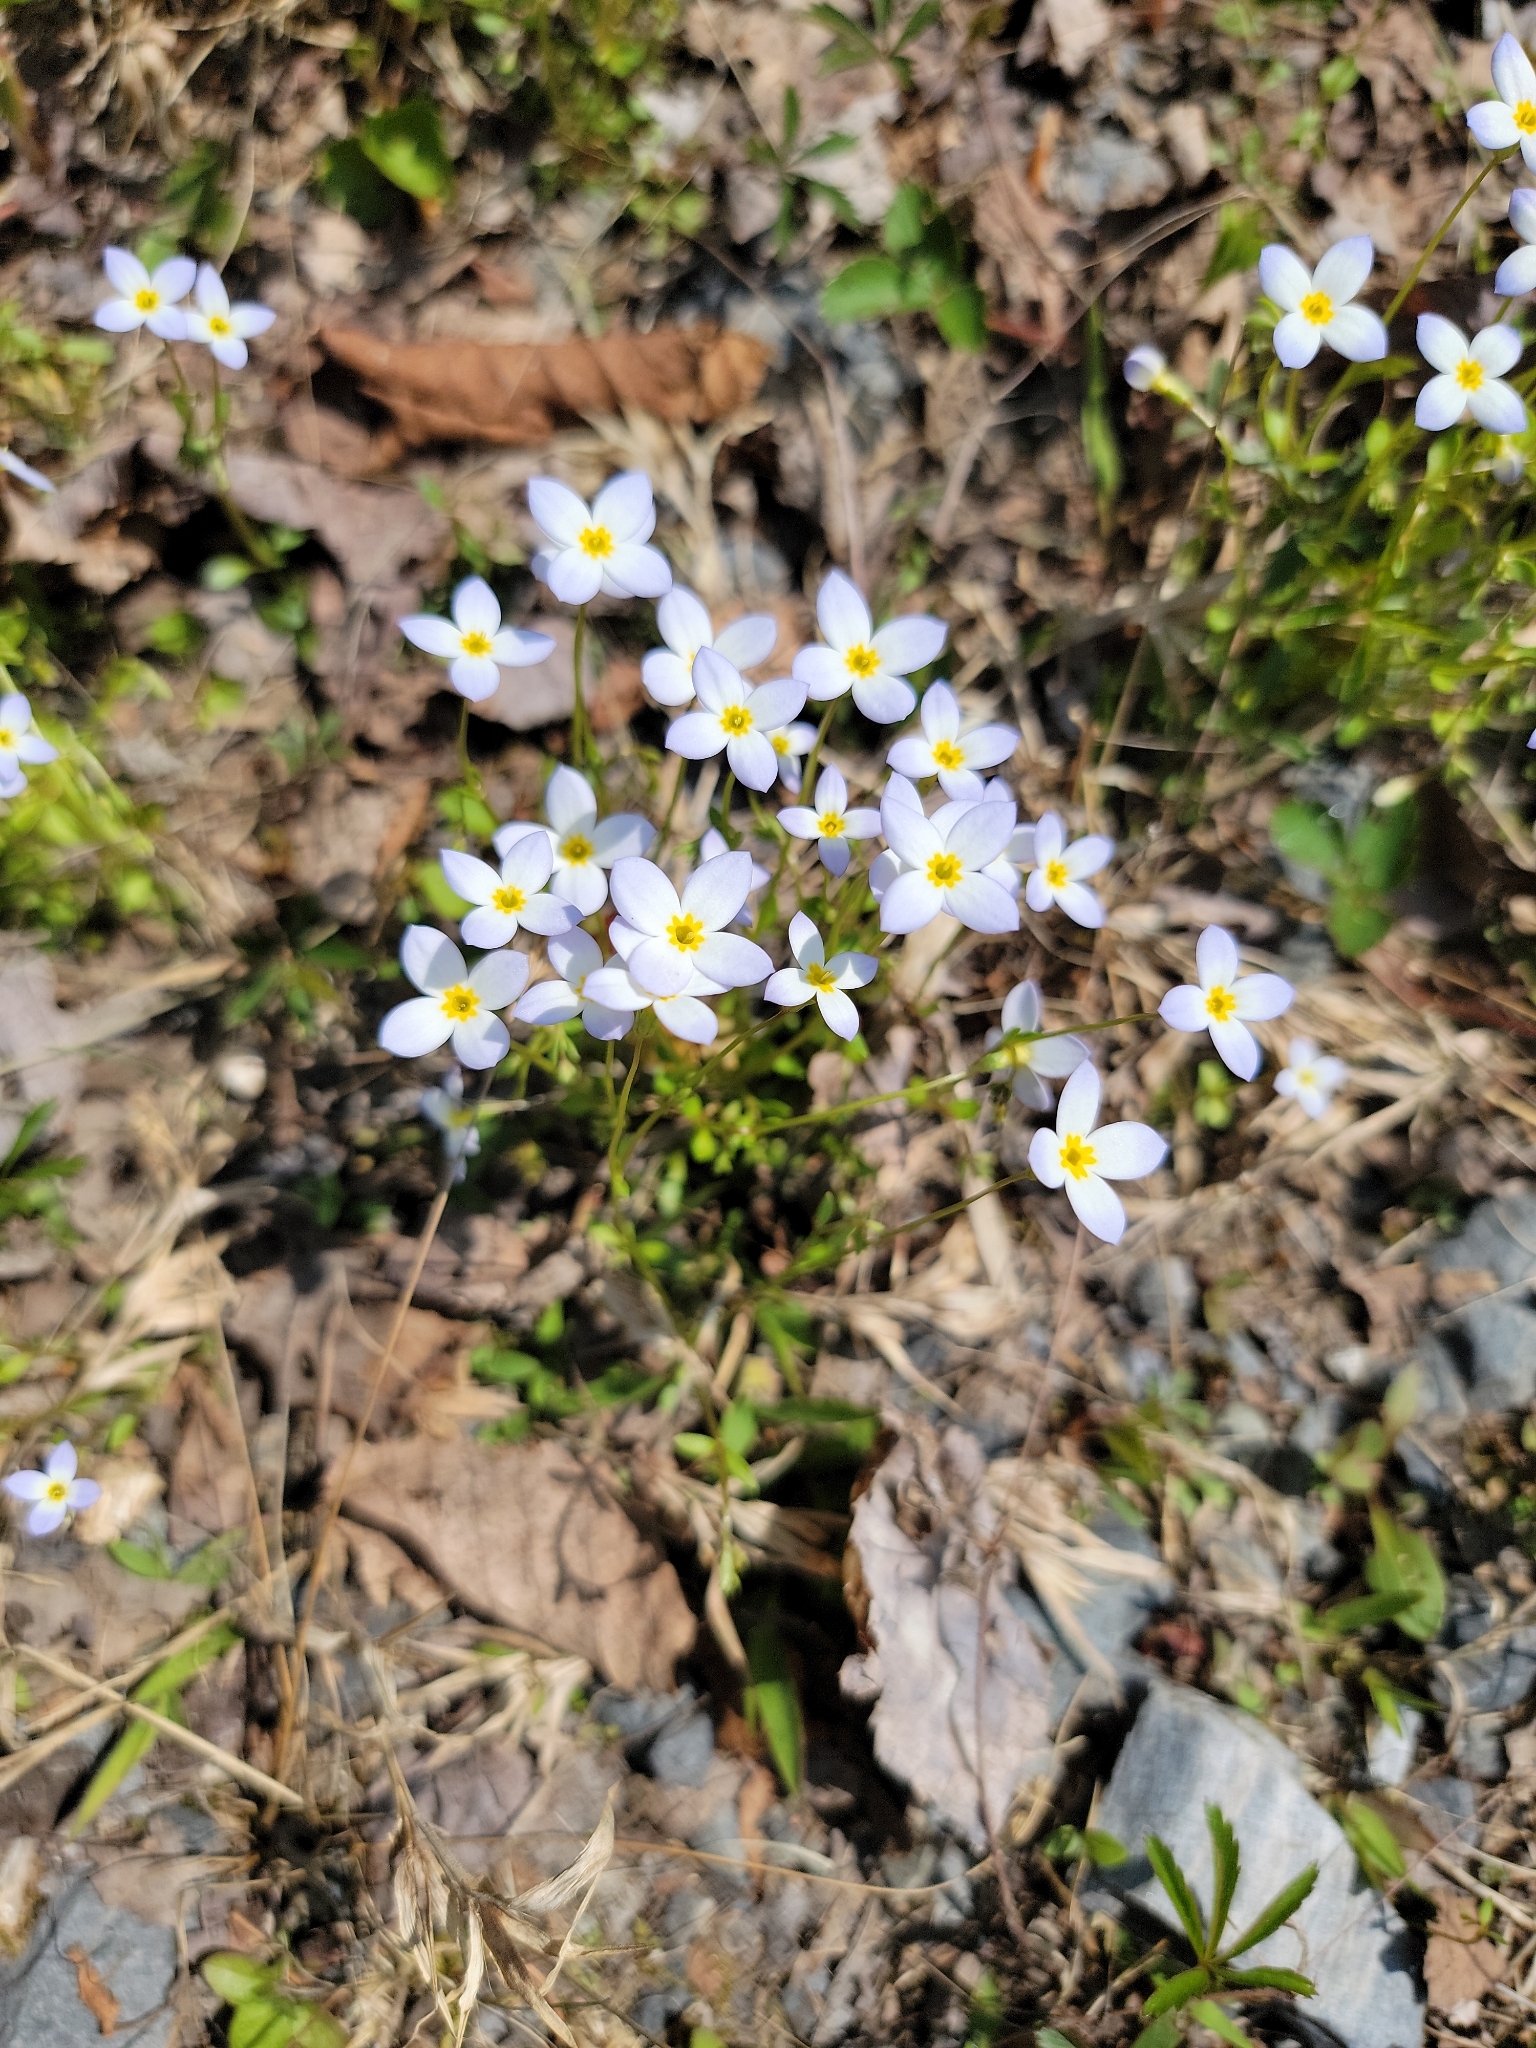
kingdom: Plantae
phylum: Tracheophyta
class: Magnoliopsida
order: Gentianales
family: Rubiaceae
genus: Houstonia
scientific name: Houstonia caerulea
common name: Bluets
